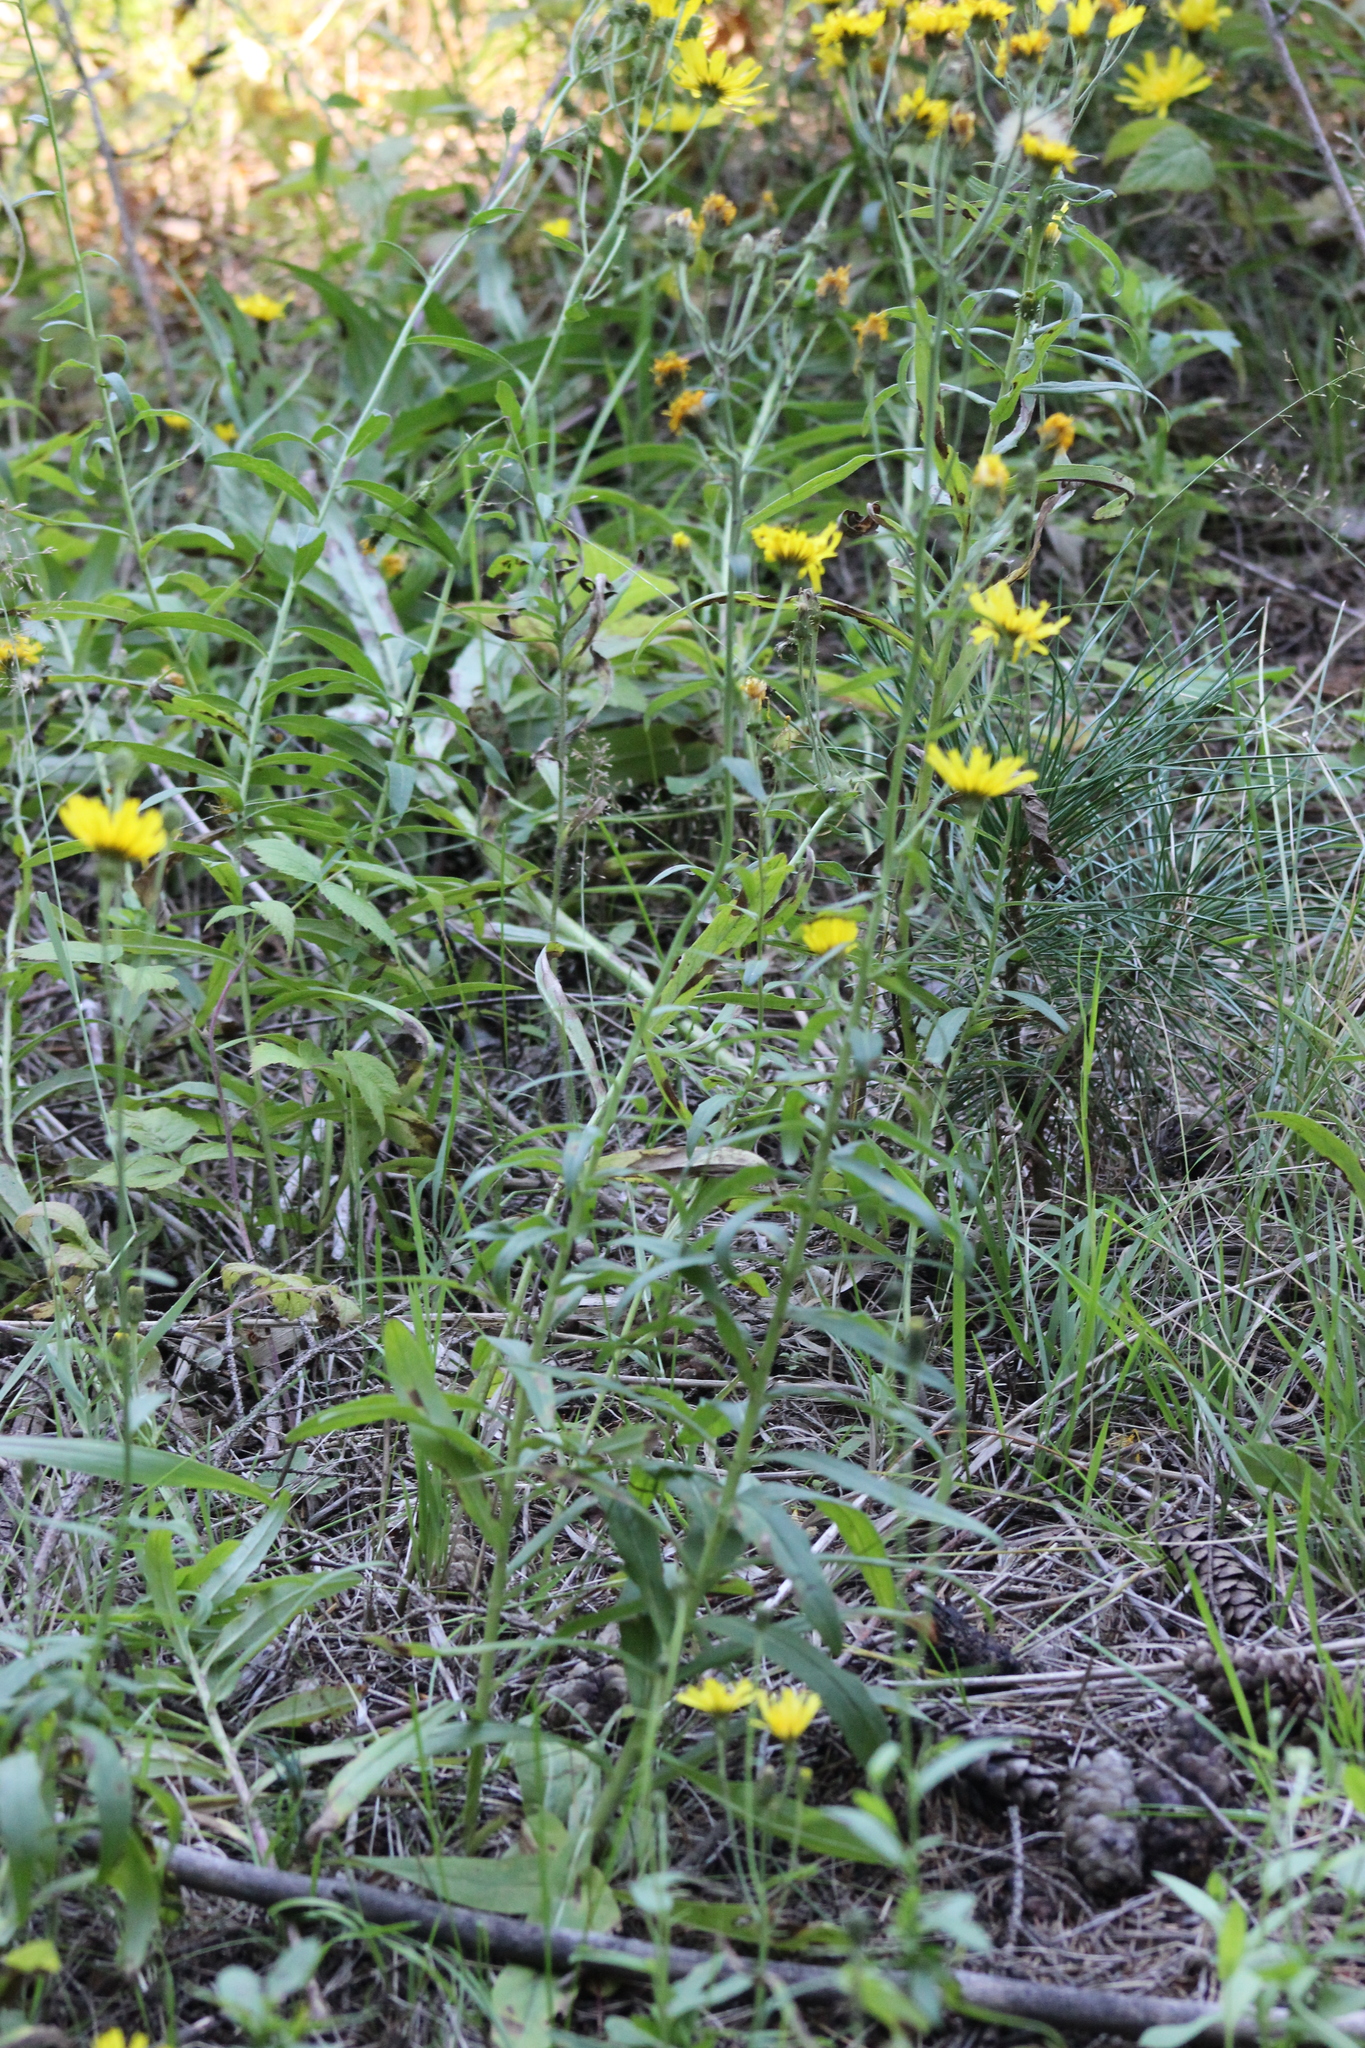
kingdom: Plantae
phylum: Tracheophyta
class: Magnoliopsida
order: Asterales
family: Asteraceae
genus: Hieracium
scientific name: Hieracium umbellatum
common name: Northern hawkweed
